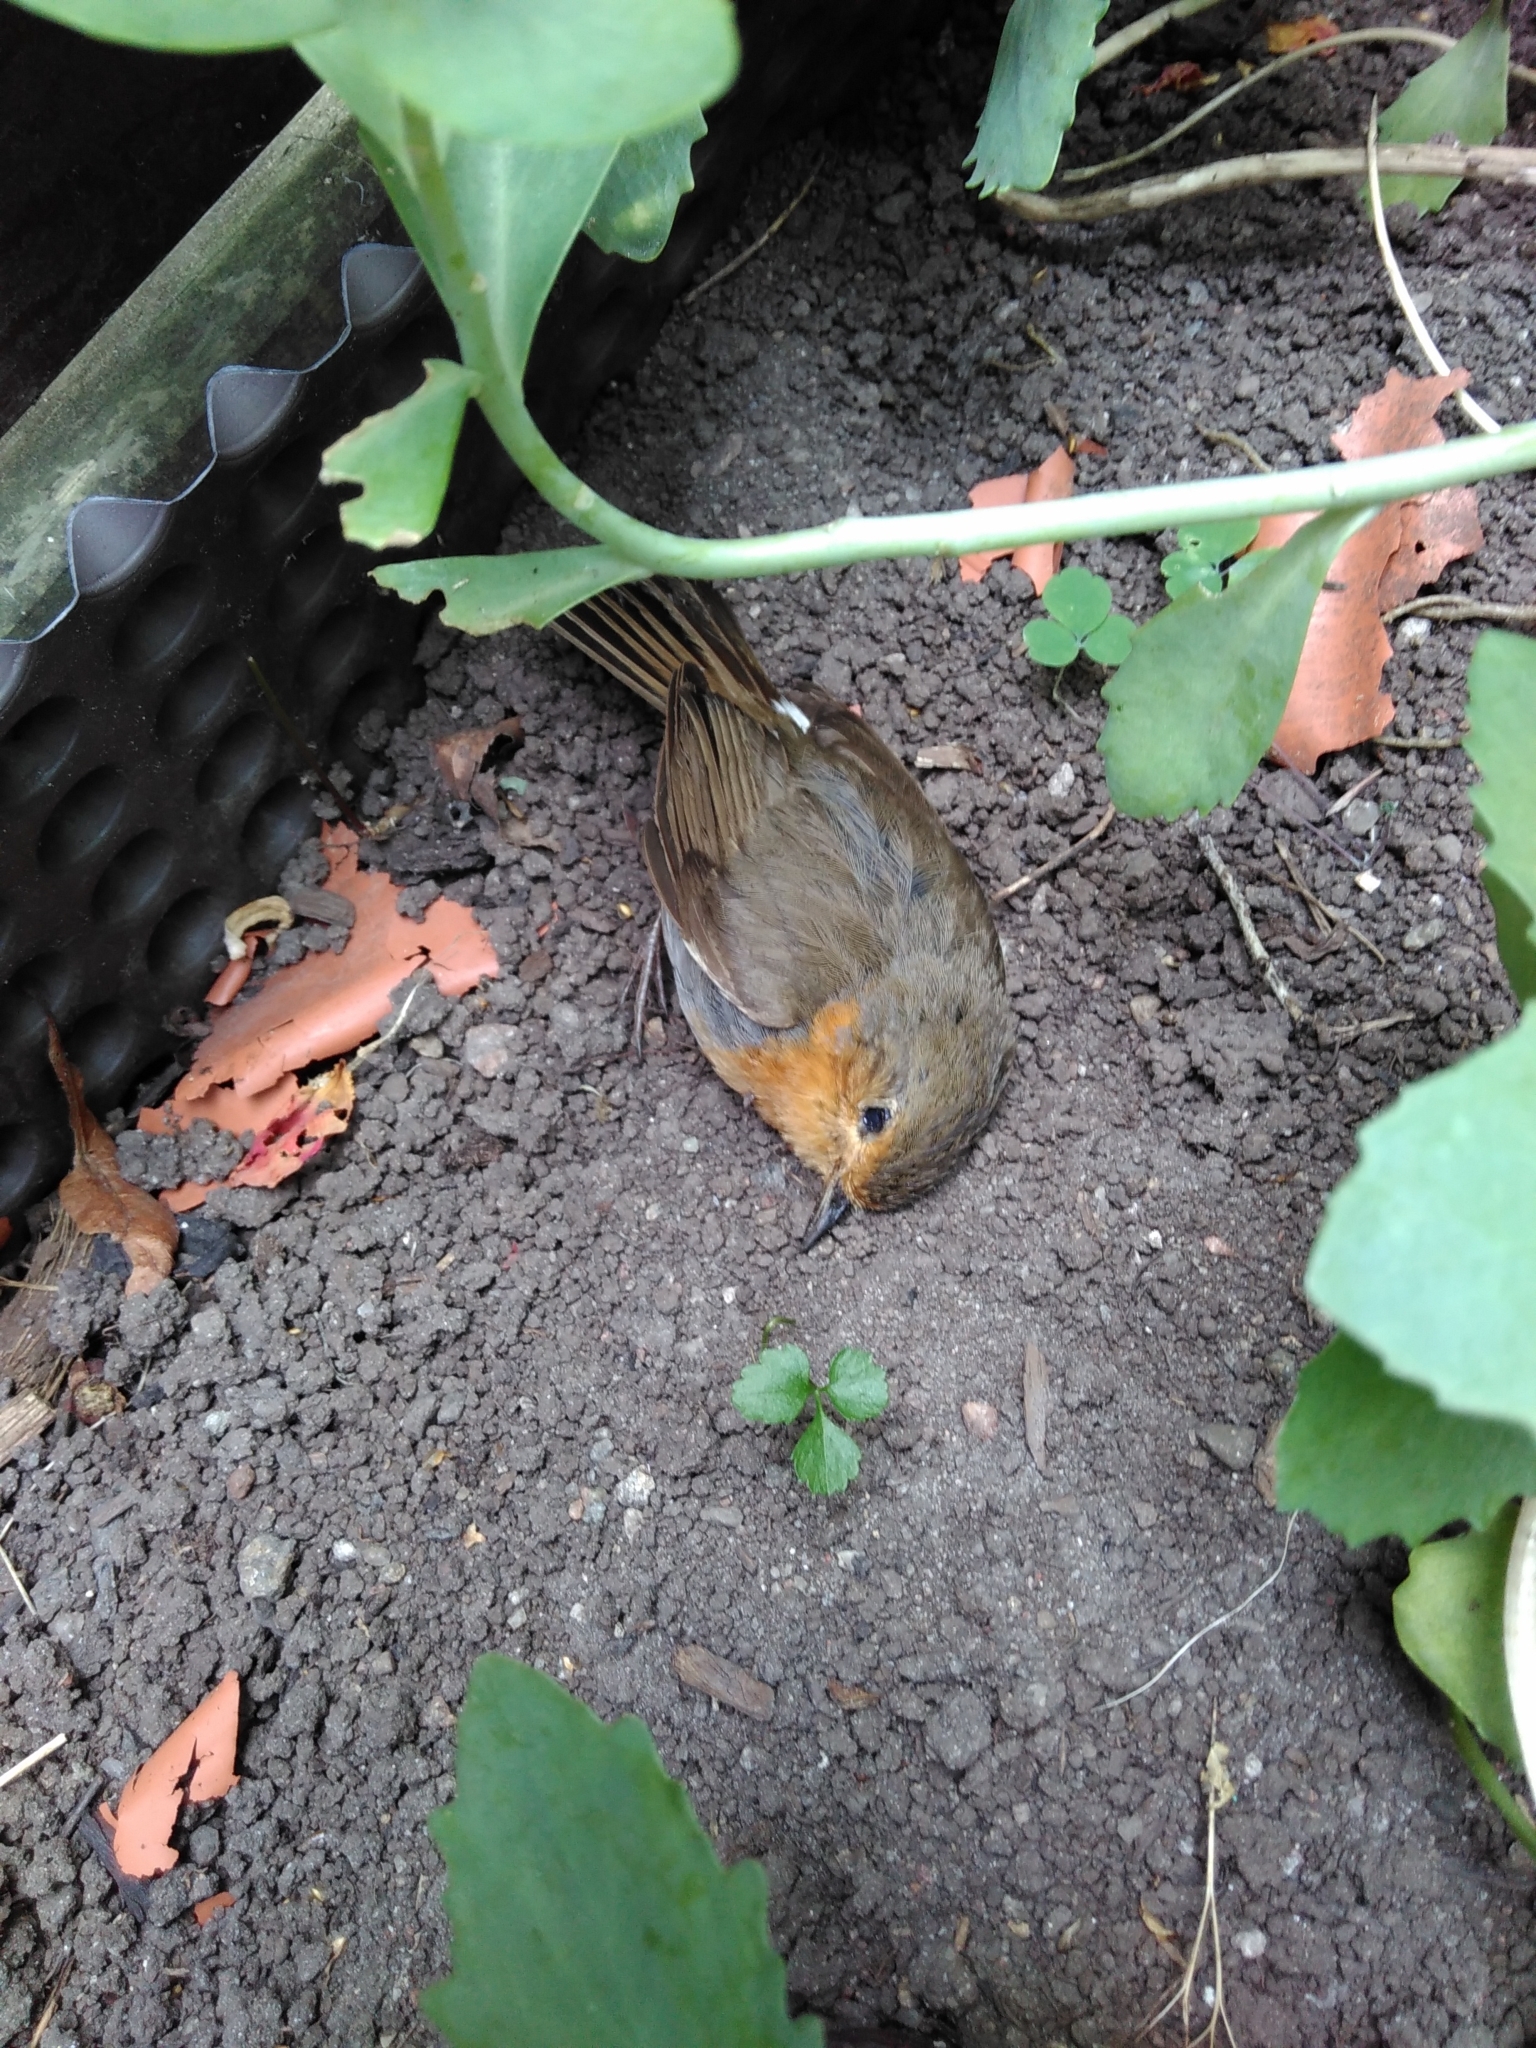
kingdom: Animalia
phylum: Chordata
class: Aves
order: Passeriformes
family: Muscicapidae
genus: Erithacus
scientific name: Erithacus rubecula
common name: European robin
